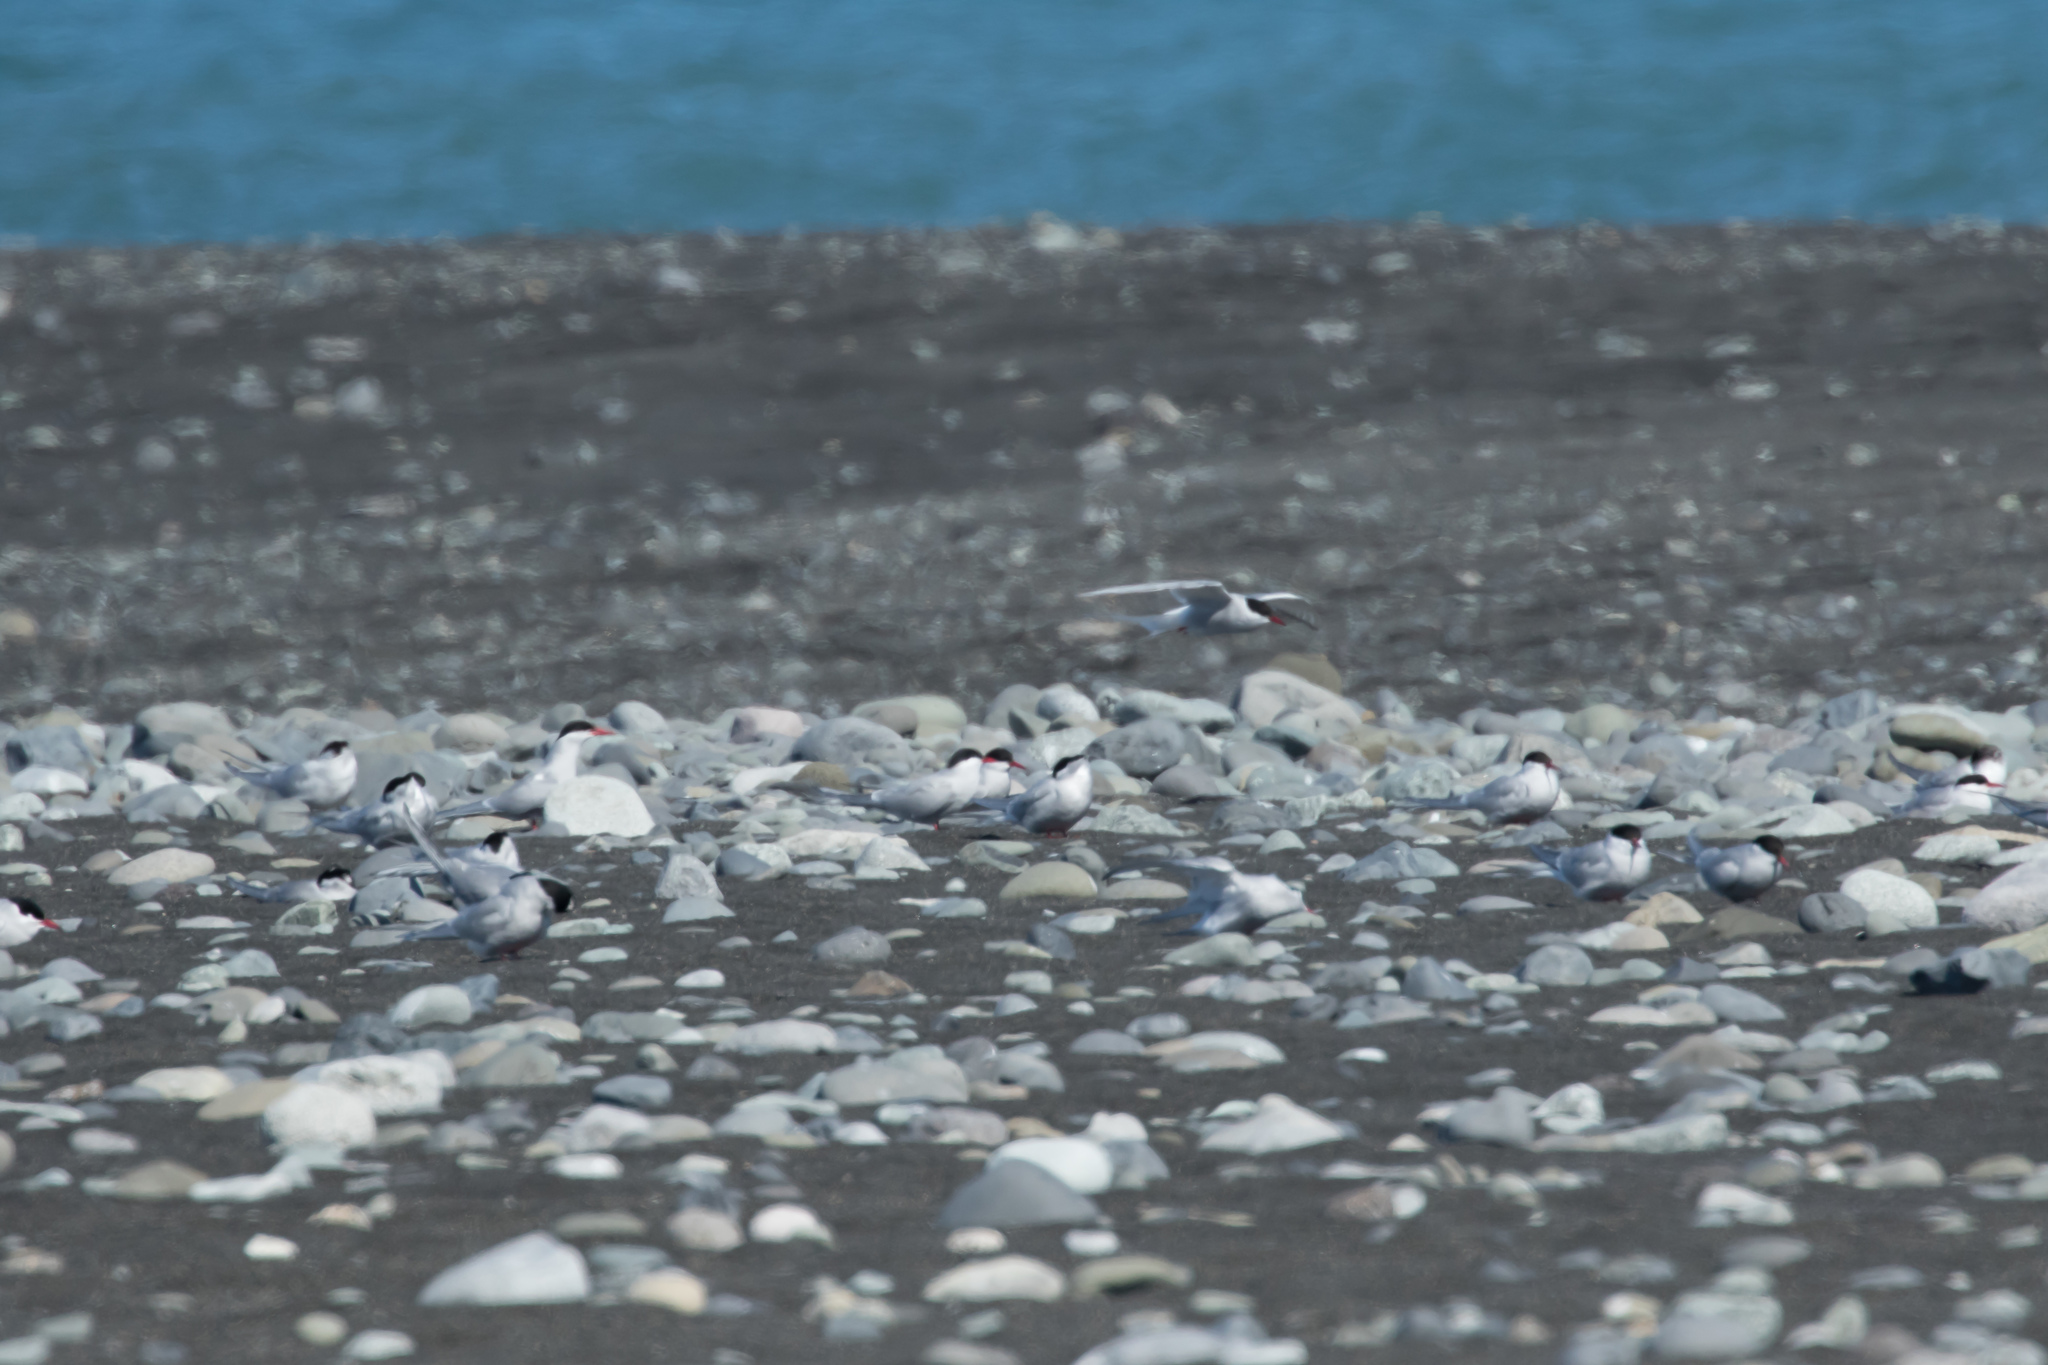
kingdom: Animalia
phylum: Chordata
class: Aves
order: Charadriiformes
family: Laridae
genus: Sterna
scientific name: Sterna paradisaea
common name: Arctic tern
